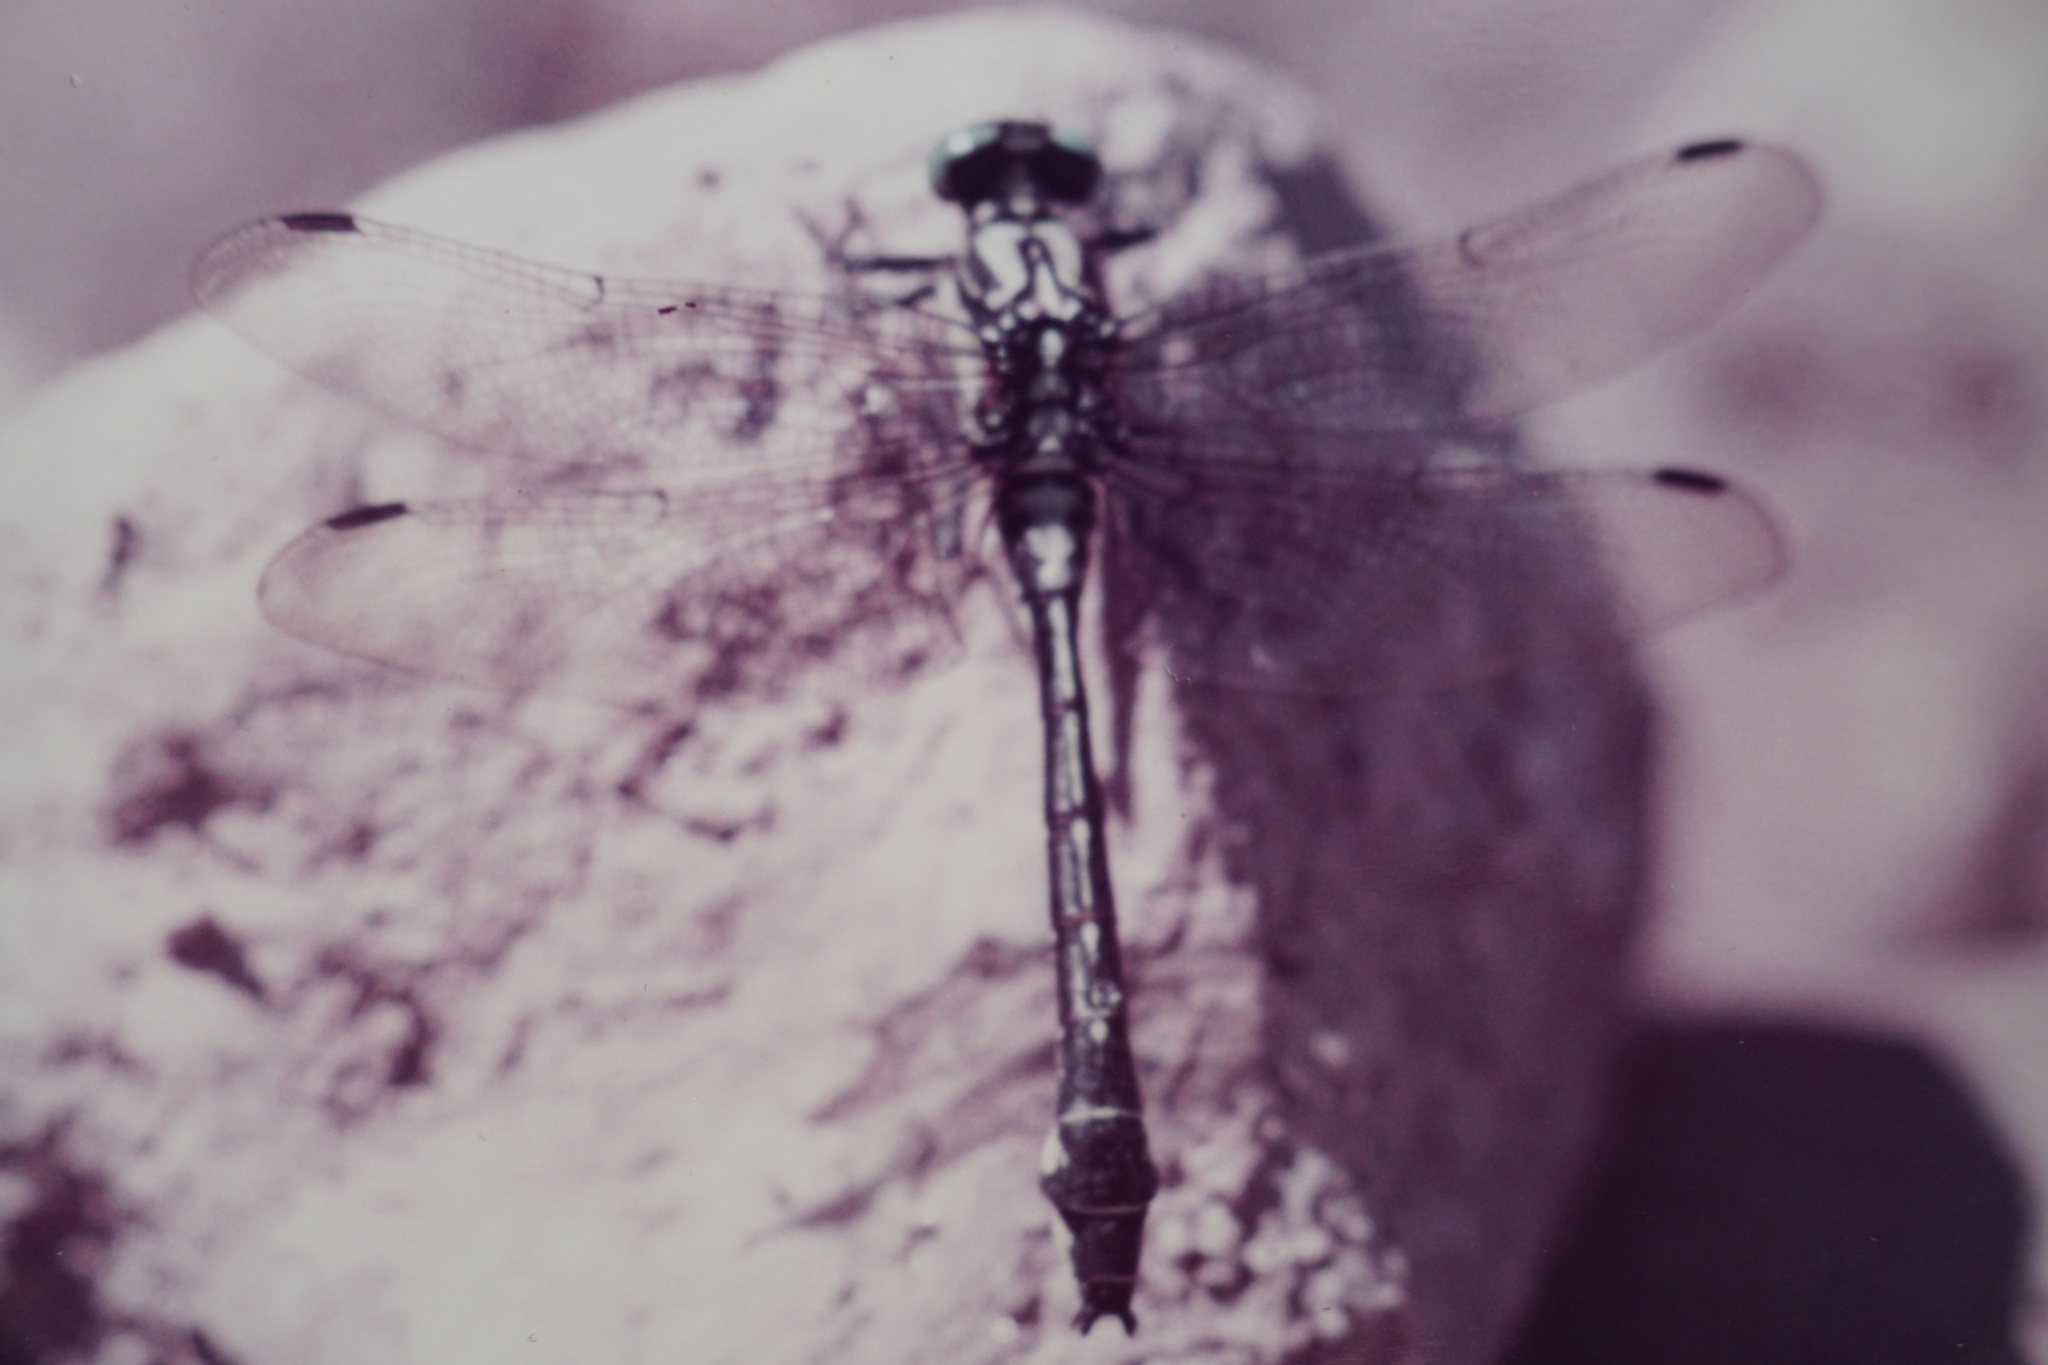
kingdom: Animalia
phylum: Arthropoda
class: Insecta
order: Odonata
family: Gomphidae
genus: Gomphus
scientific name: Gomphus vulgatissimus
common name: Club-tailed dragonfly
